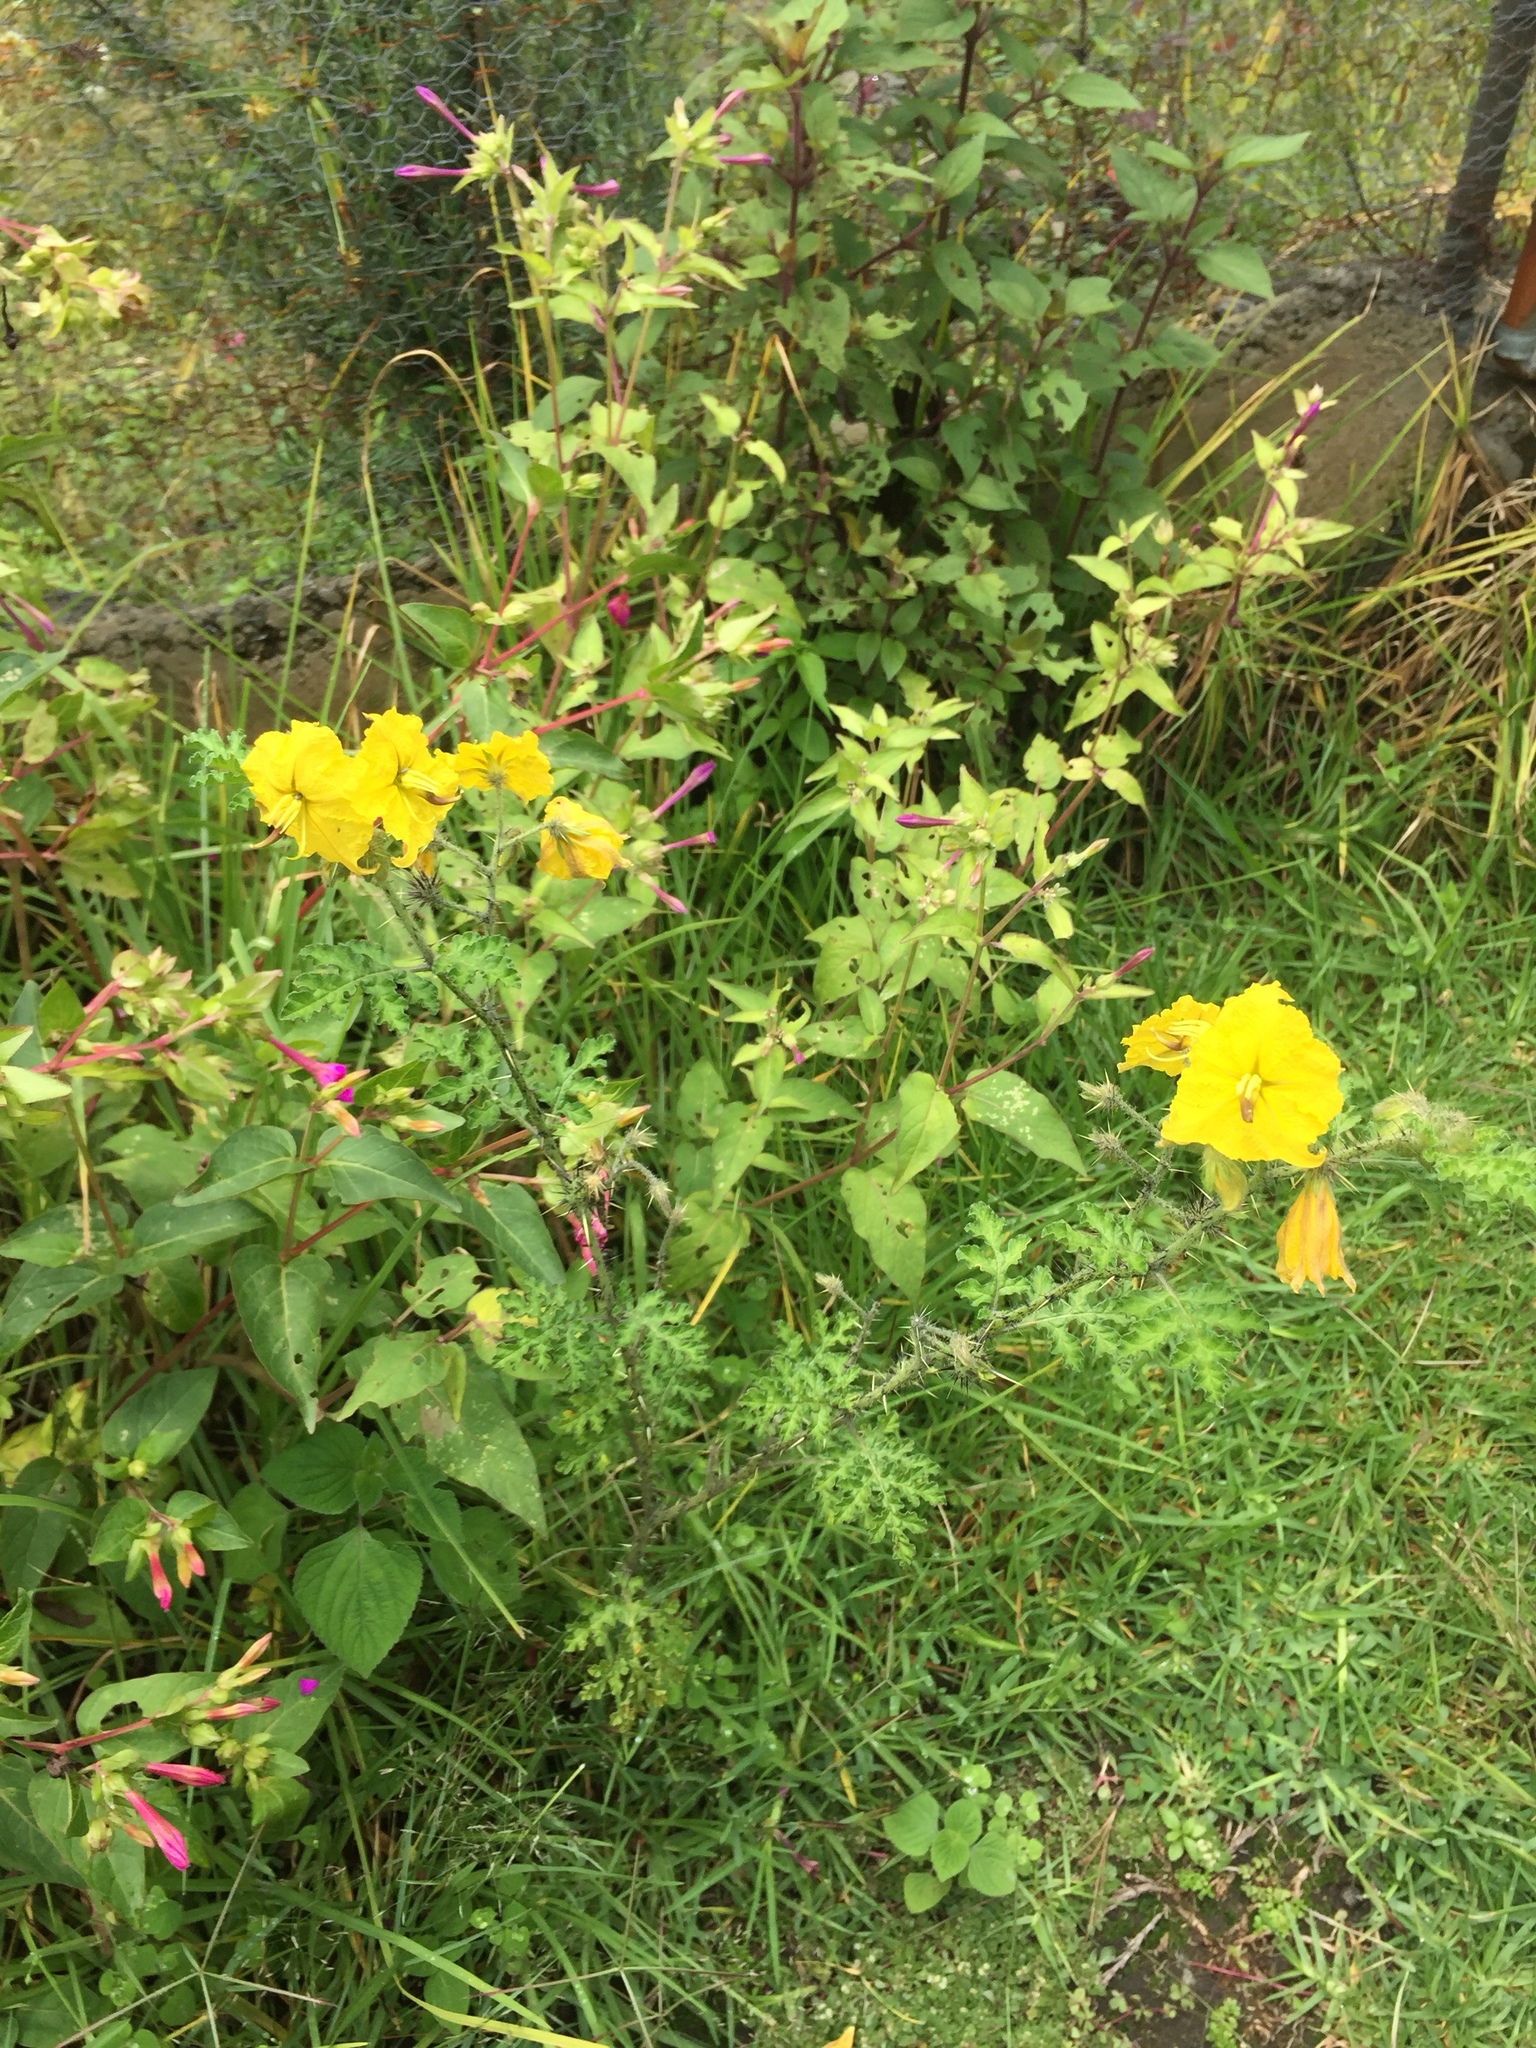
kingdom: Plantae
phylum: Tracheophyta
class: Magnoliopsida
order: Solanales
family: Solanaceae
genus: Solanum
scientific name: Solanum angustifolium
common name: Buffalobur nightshade
